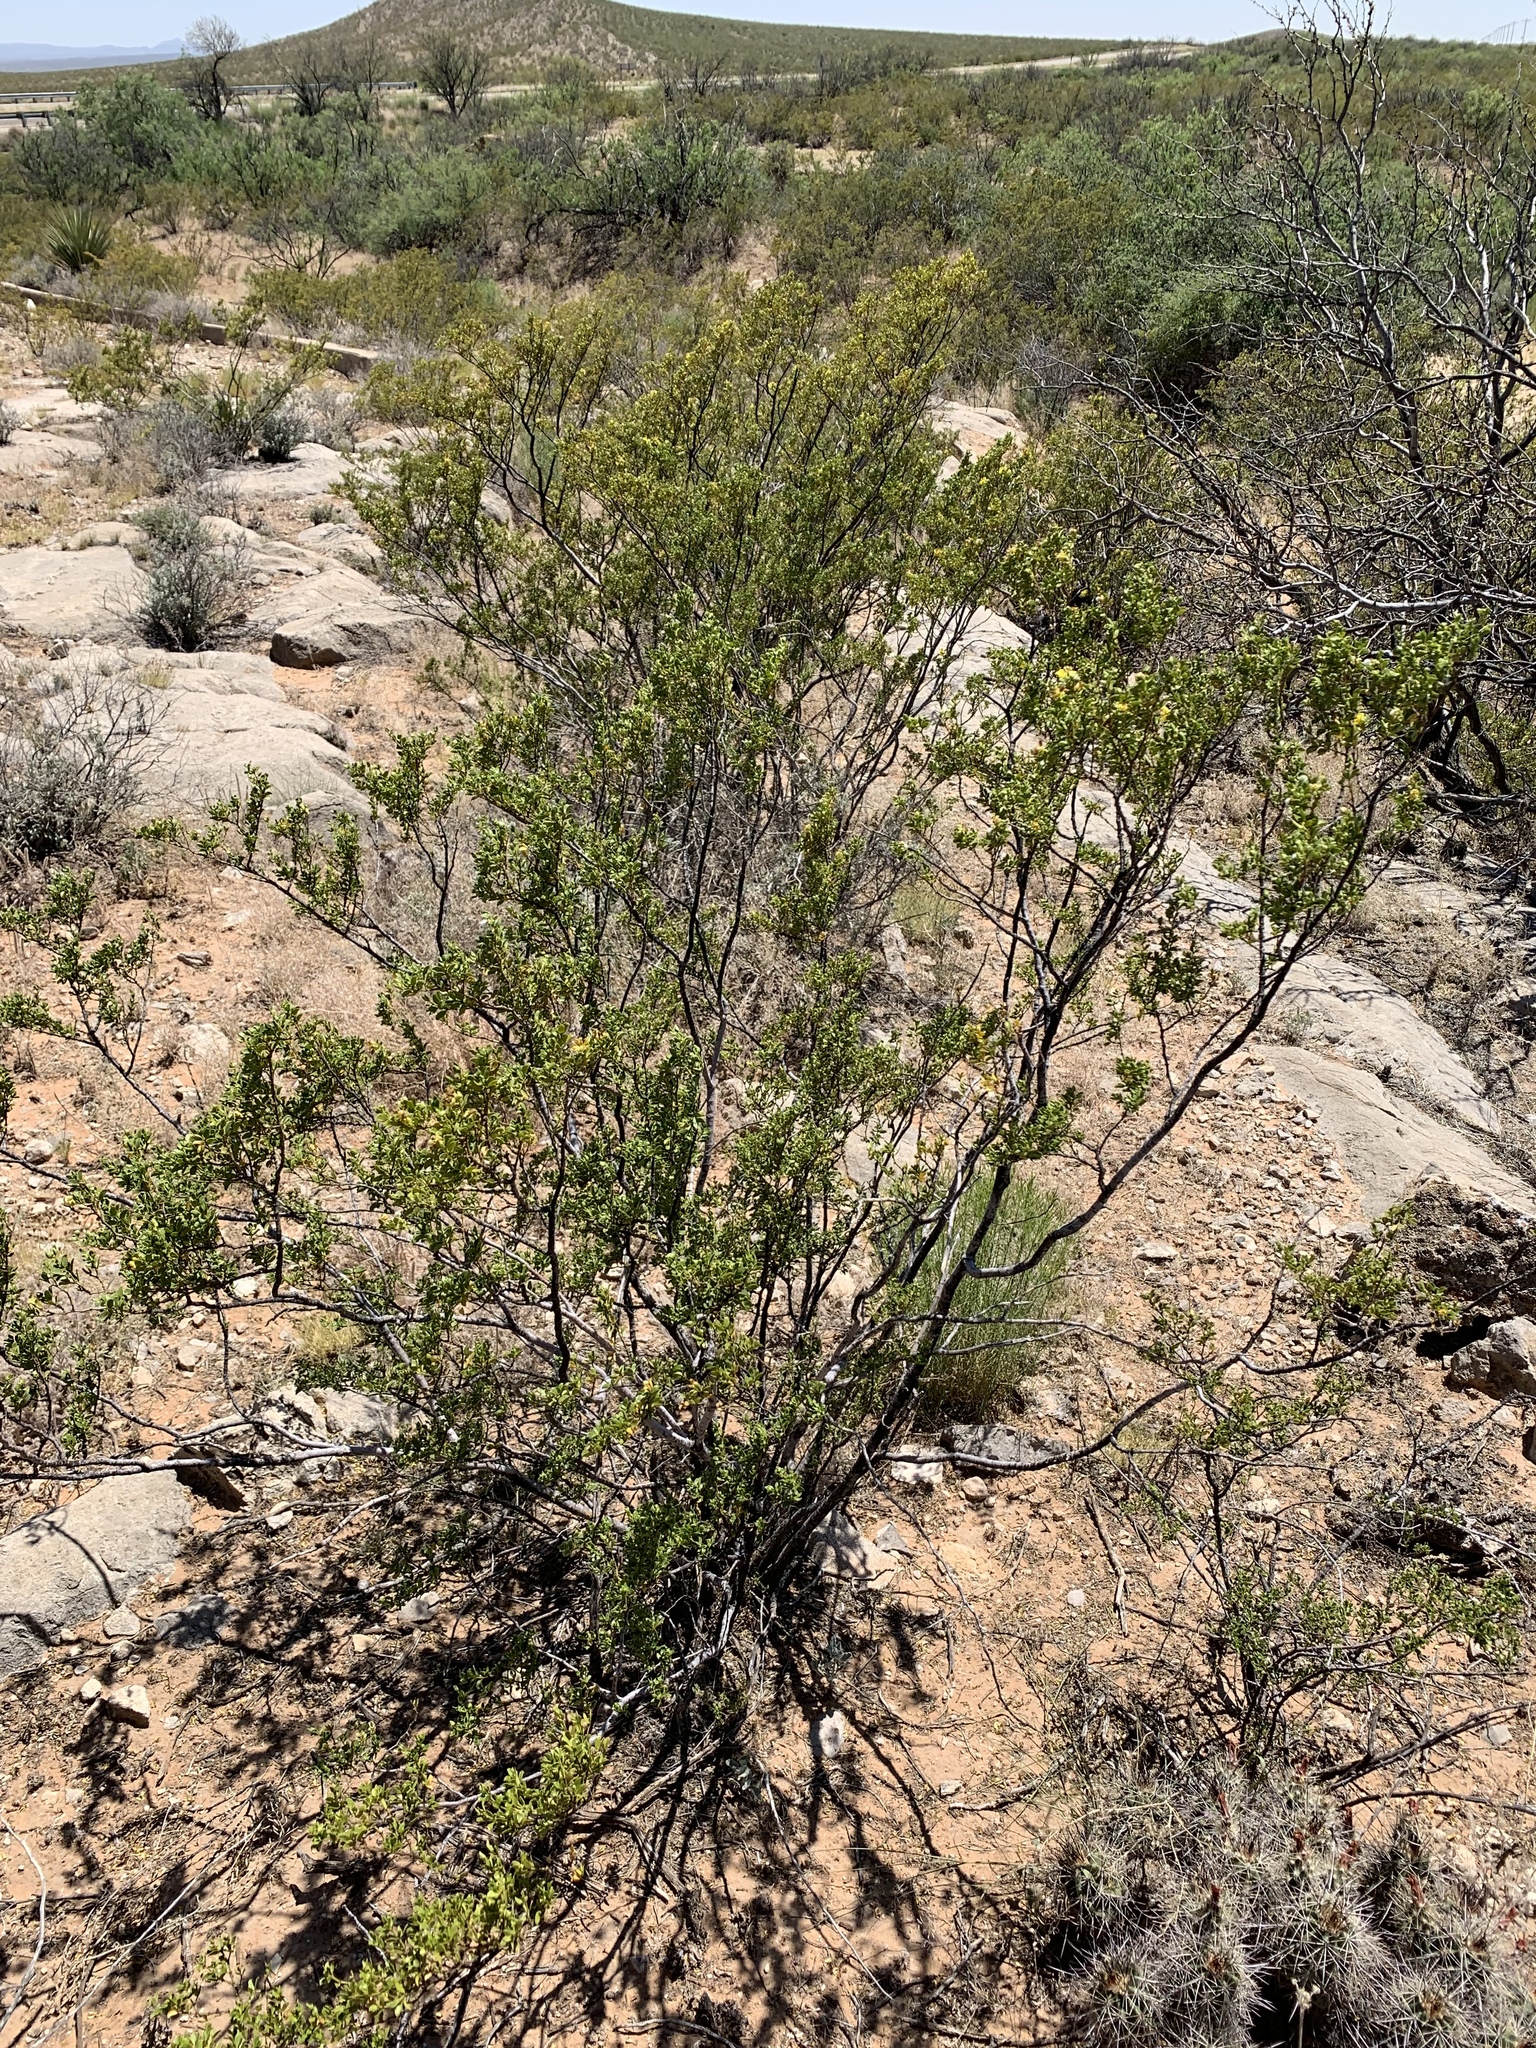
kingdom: Plantae
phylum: Tracheophyta
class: Magnoliopsida
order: Zygophyllales
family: Zygophyllaceae
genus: Larrea
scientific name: Larrea tridentata
